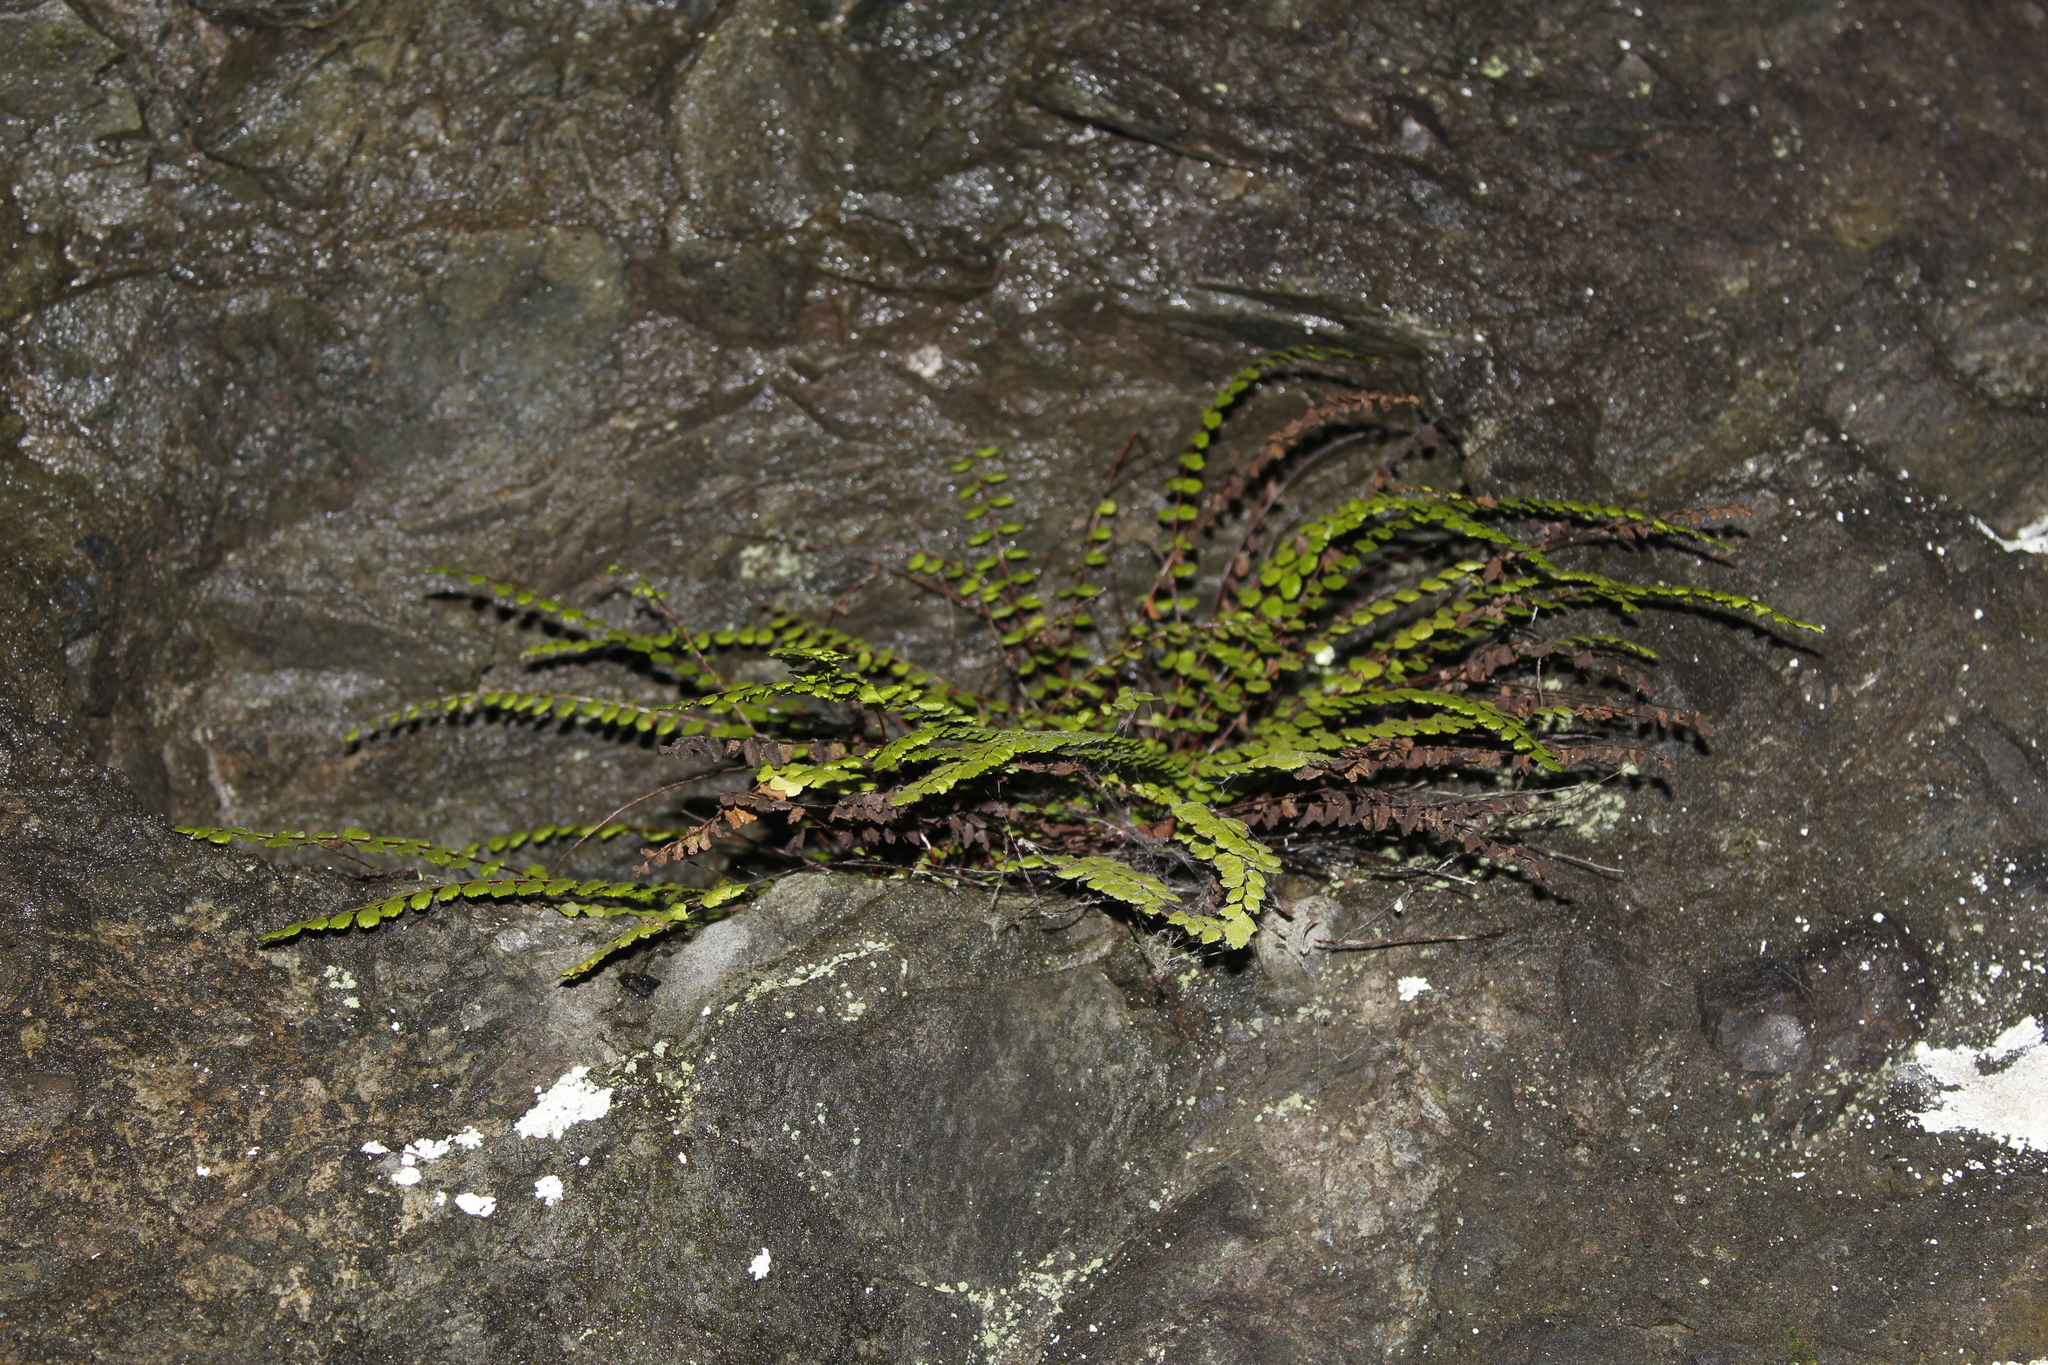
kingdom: Plantae
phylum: Tracheophyta
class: Polypodiopsida
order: Polypodiales
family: Aspleniaceae
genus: Asplenium
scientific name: Asplenium trichomanes
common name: Maidenhair spleenwort
